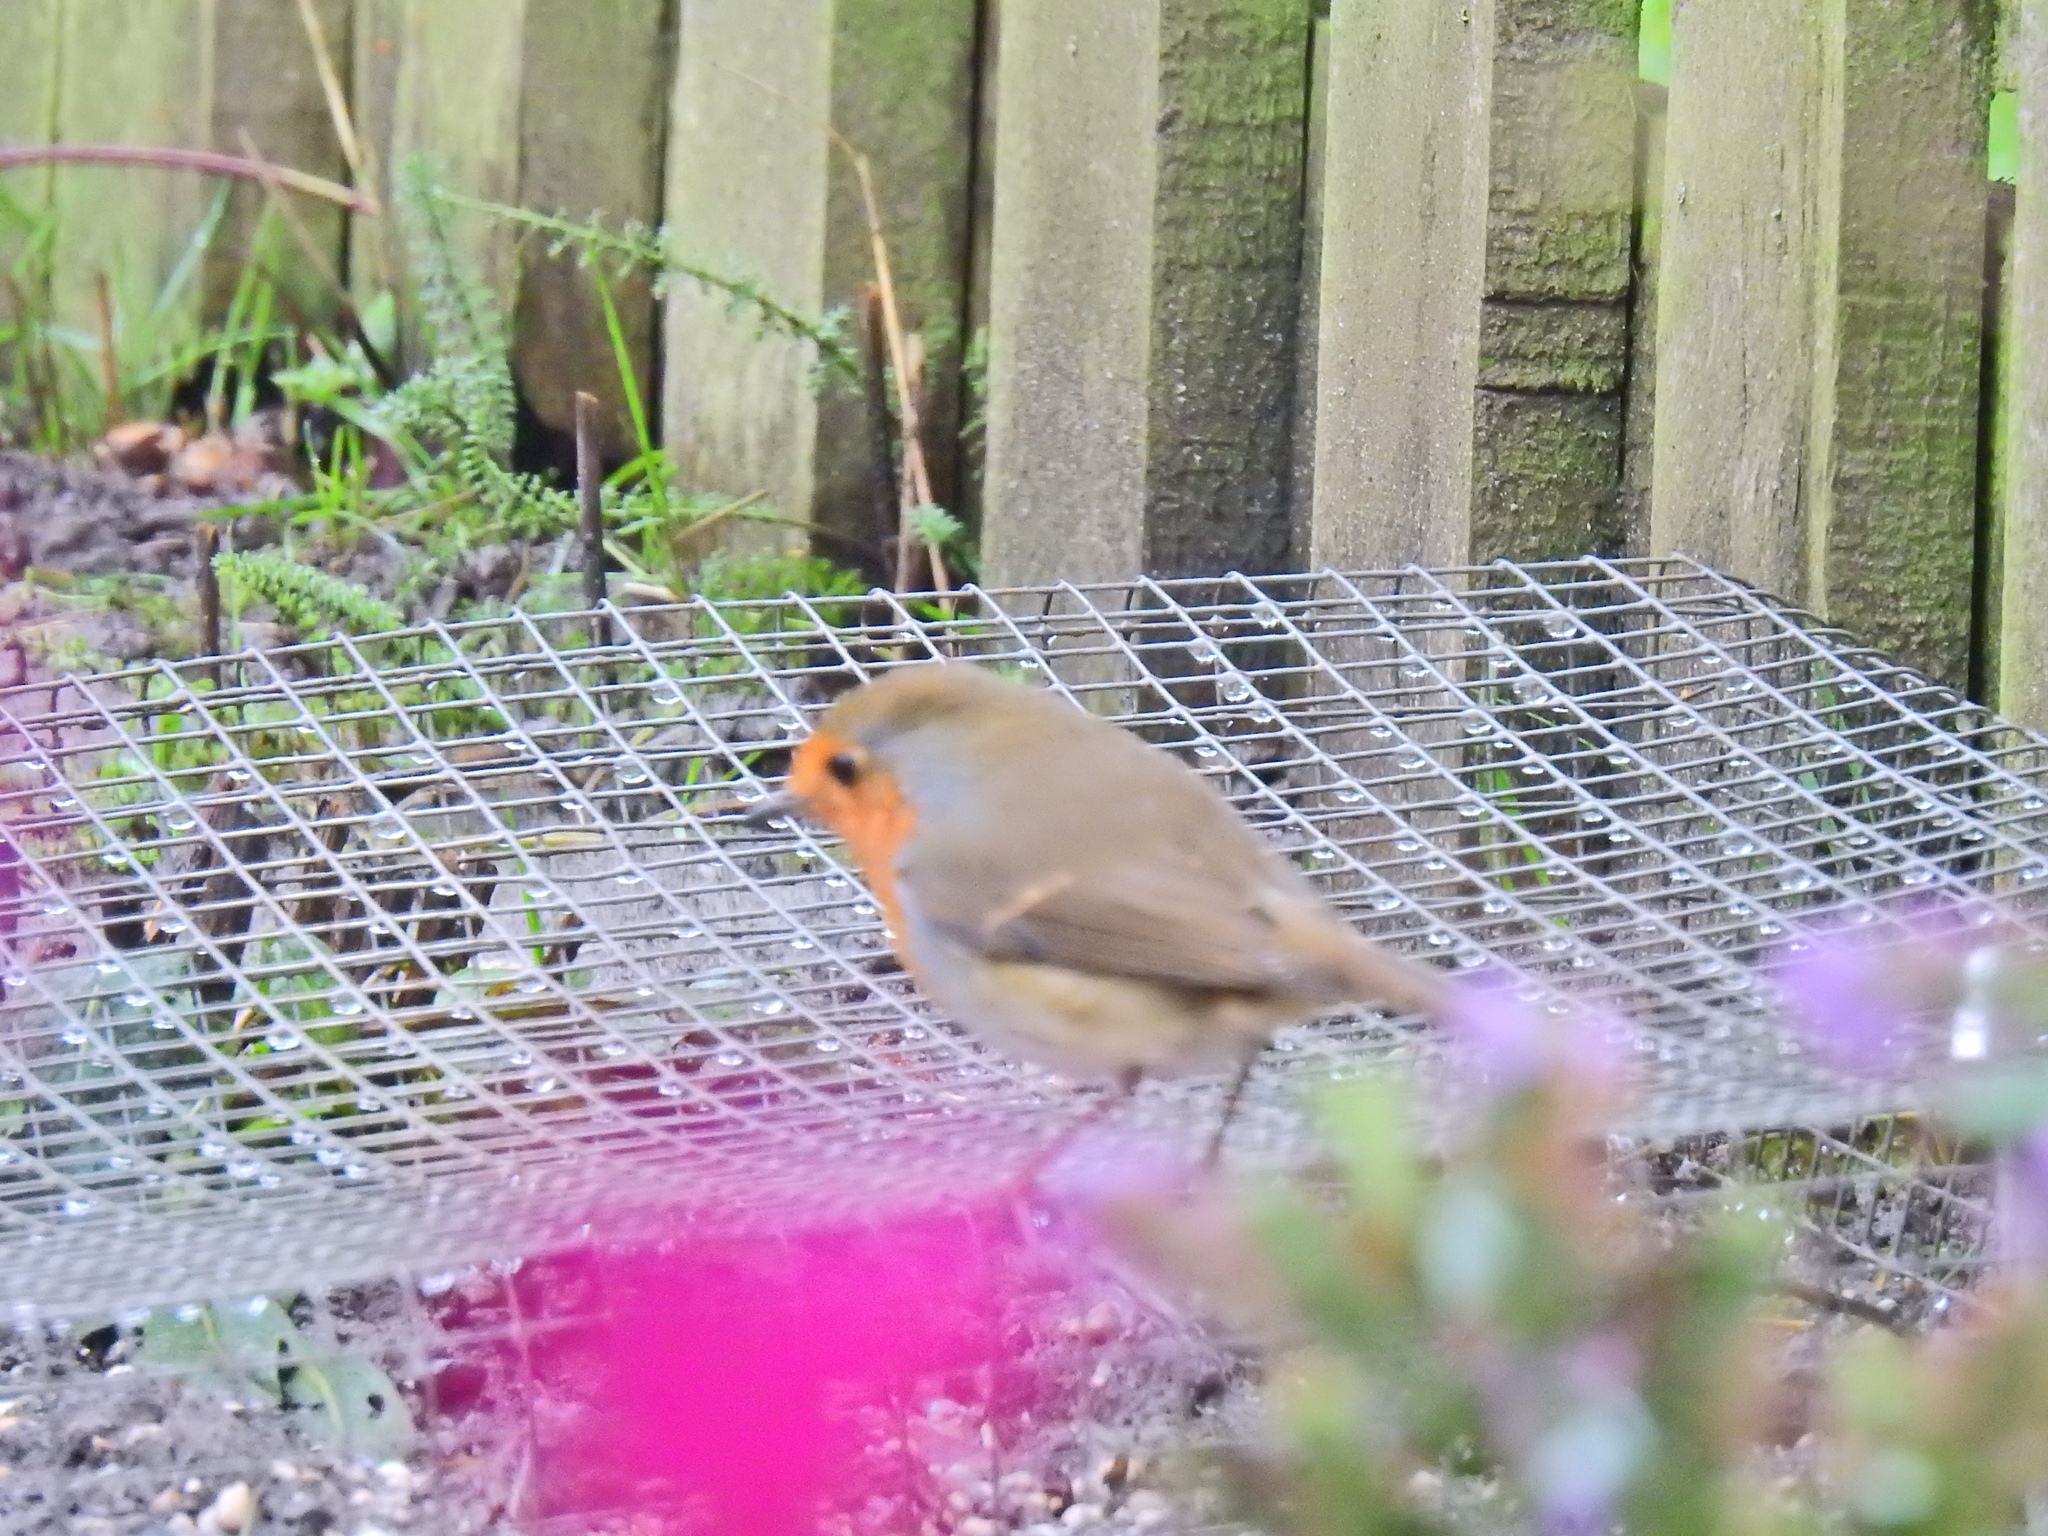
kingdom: Animalia
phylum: Chordata
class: Aves
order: Passeriformes
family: Muscicapidae
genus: Erithacus
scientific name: Erithacus rubecula
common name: European robin
